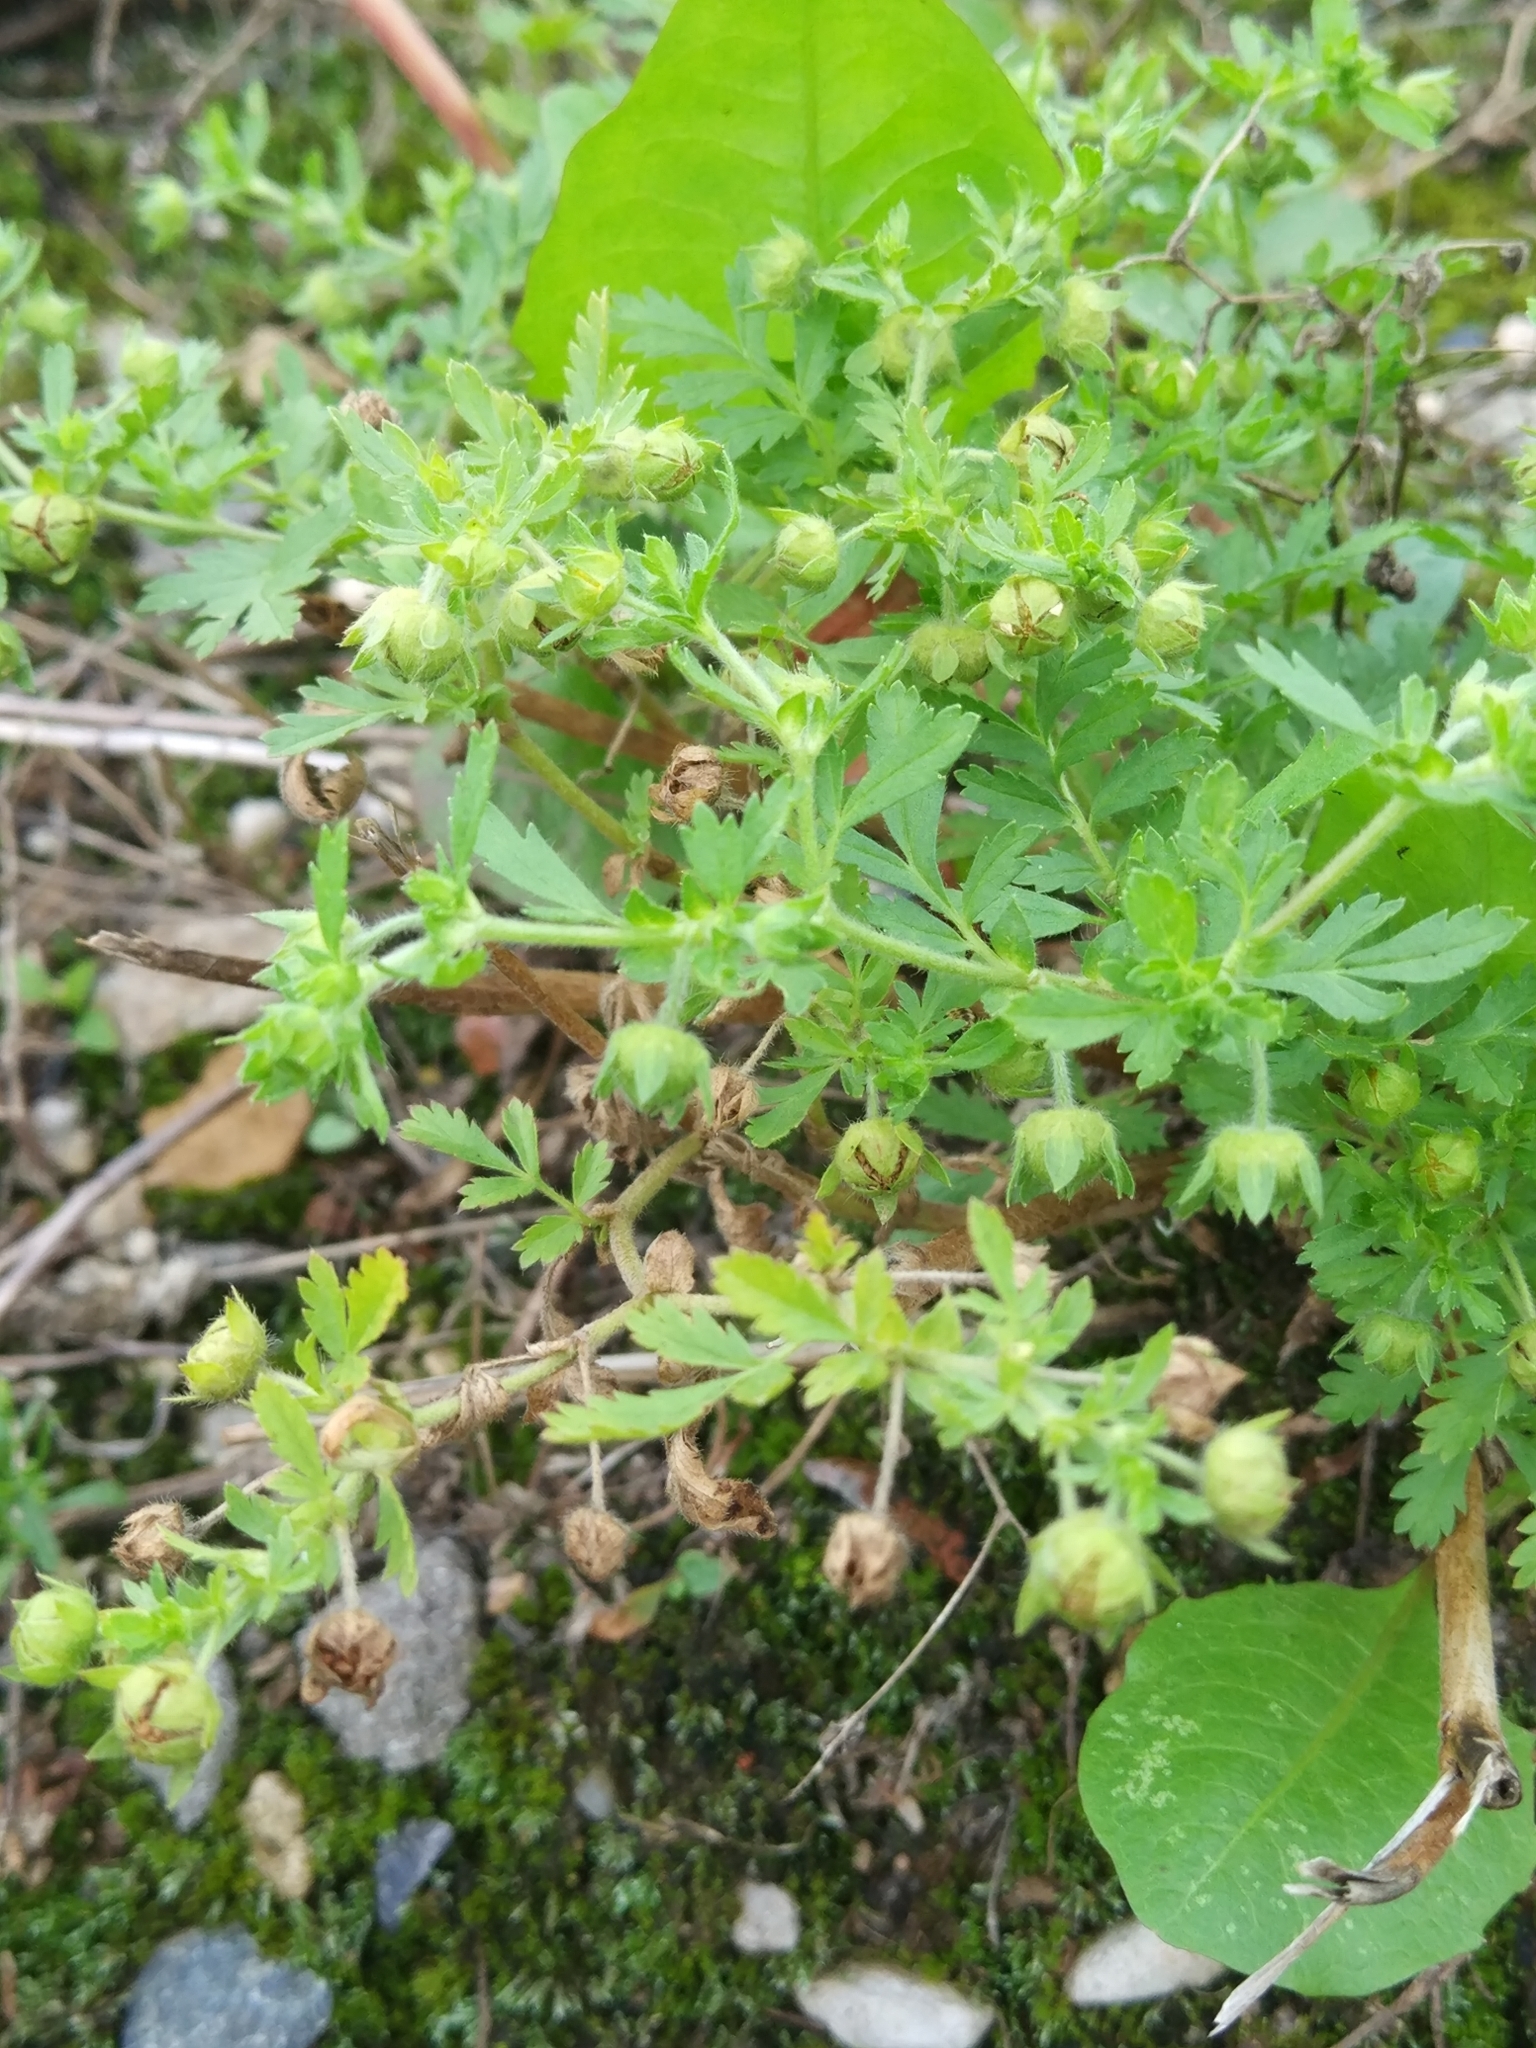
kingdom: Plantae
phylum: Tracheophyta
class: Magnoliopsida
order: Rosales
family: Rosaceae
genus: Potentilla
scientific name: Potentilla supina
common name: Prostrate cinquefoil
